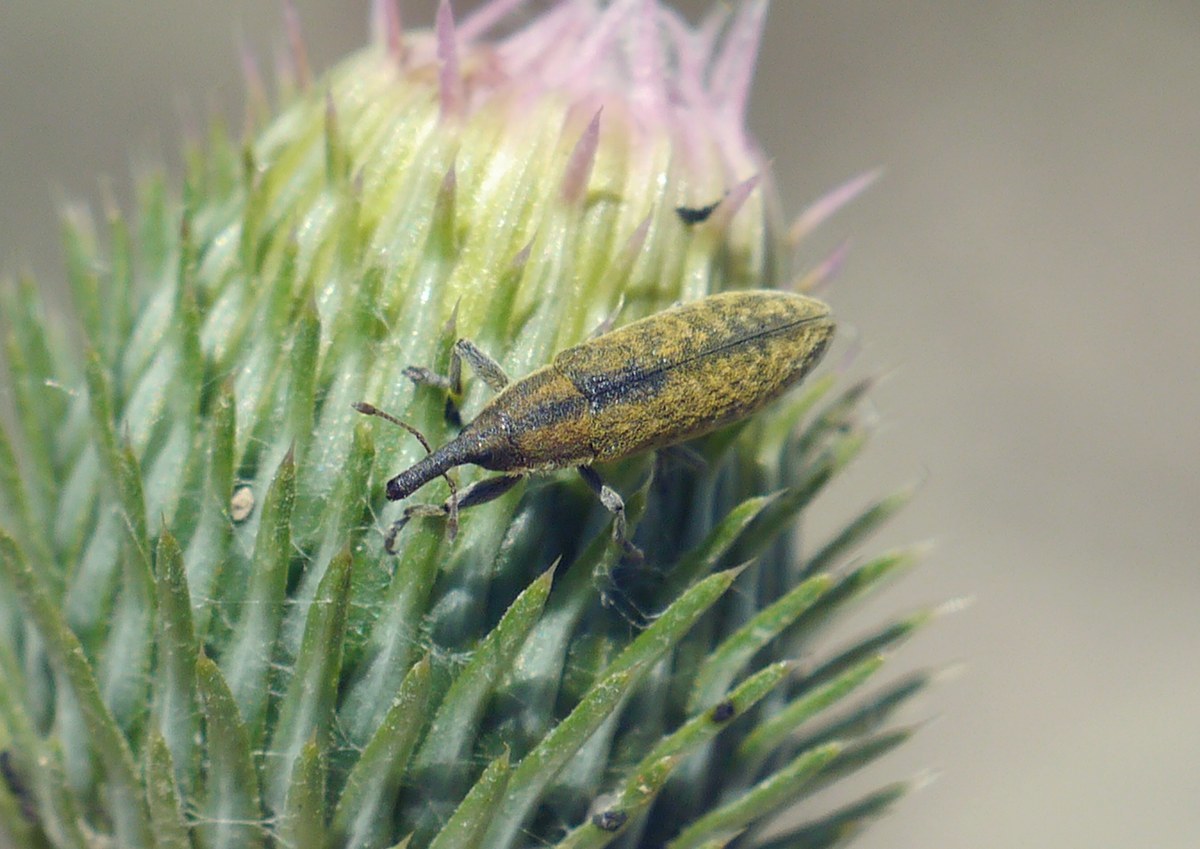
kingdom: Animalia
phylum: Arthropoda
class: Insecta
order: Coleoptera
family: Curculionidae
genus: Lixus
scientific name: Lixus filiformis
